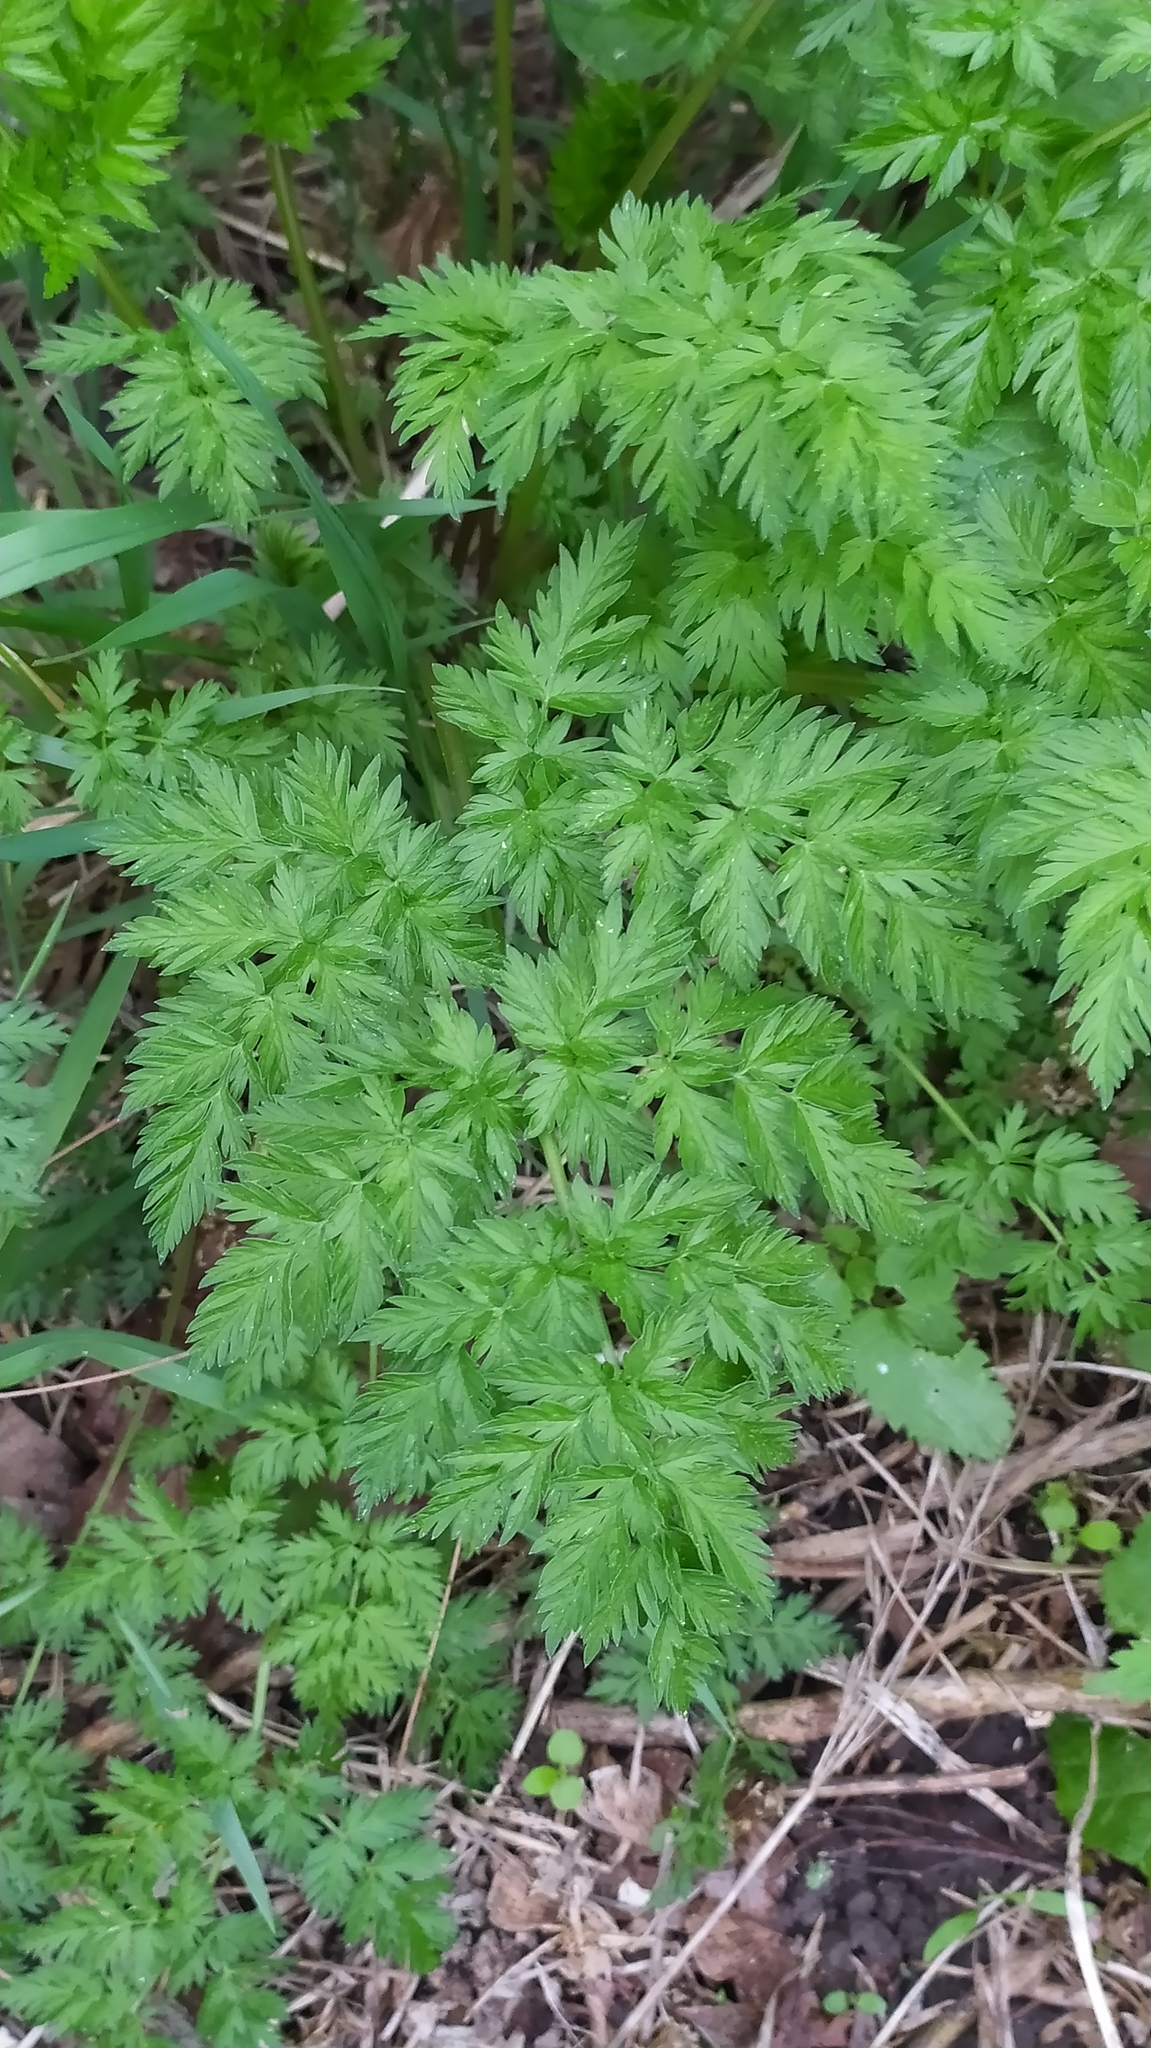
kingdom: Plantae
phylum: Tracheophyta
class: Magnoliopsida
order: Apiales
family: Apiaceae
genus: Anthriscus
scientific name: Anthriscus sylvestris
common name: Cow parsley
